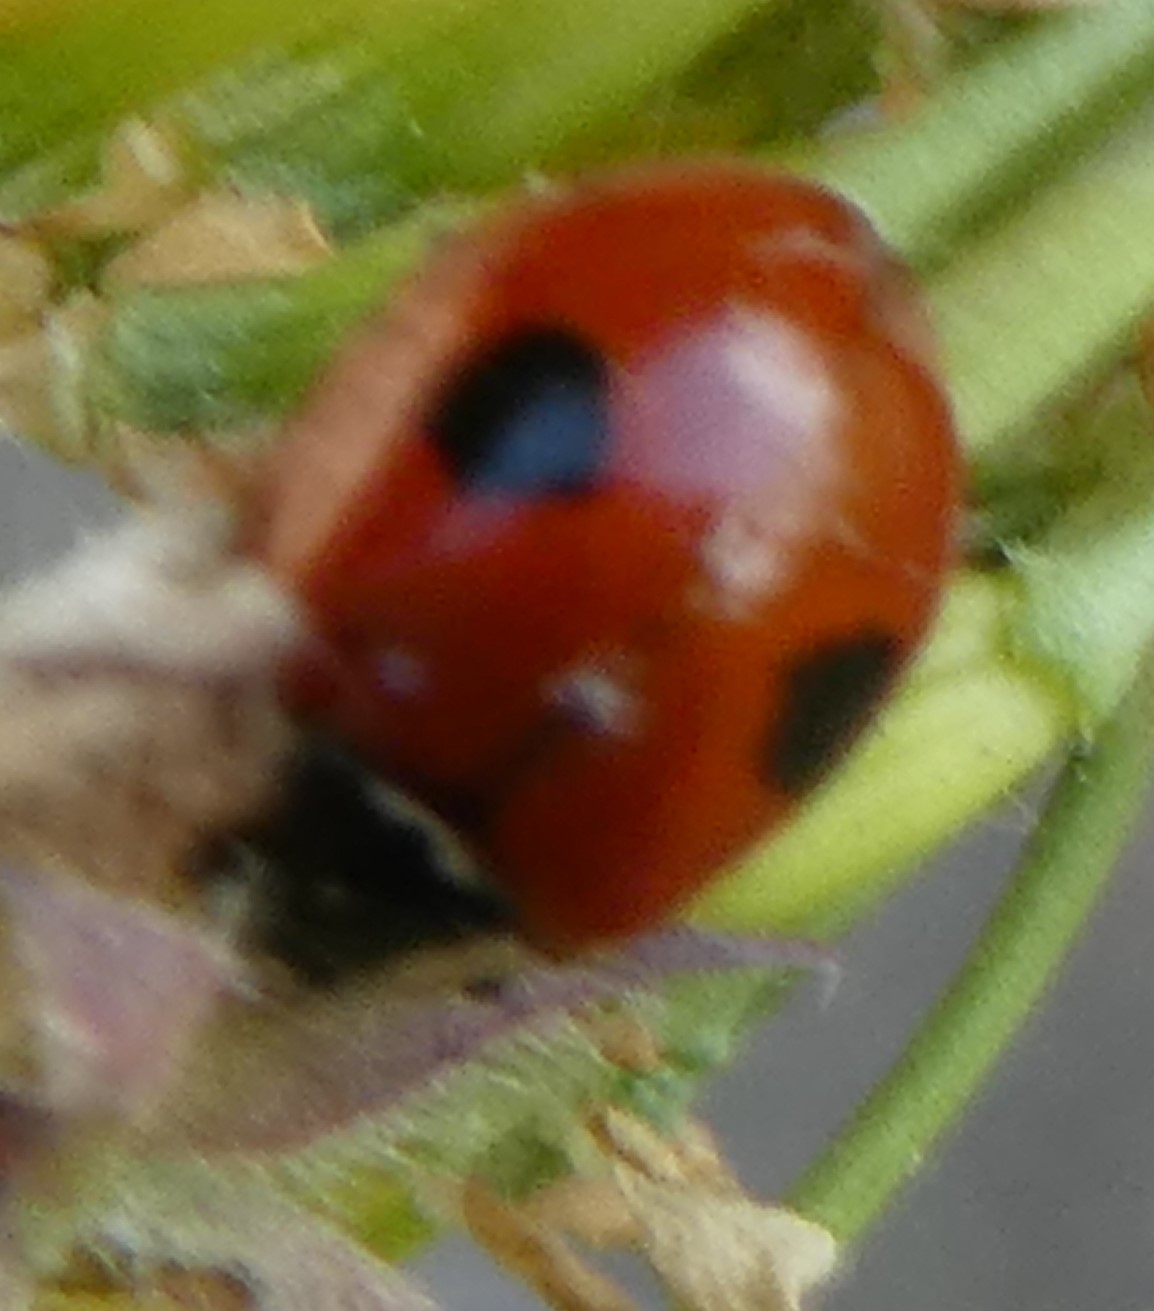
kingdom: Animalia
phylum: Arthropoda
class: Insecta
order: Coleoptera
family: Coccinellidae
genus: Adalia
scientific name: Adalia bipunctata
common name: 2-spot ladybird
